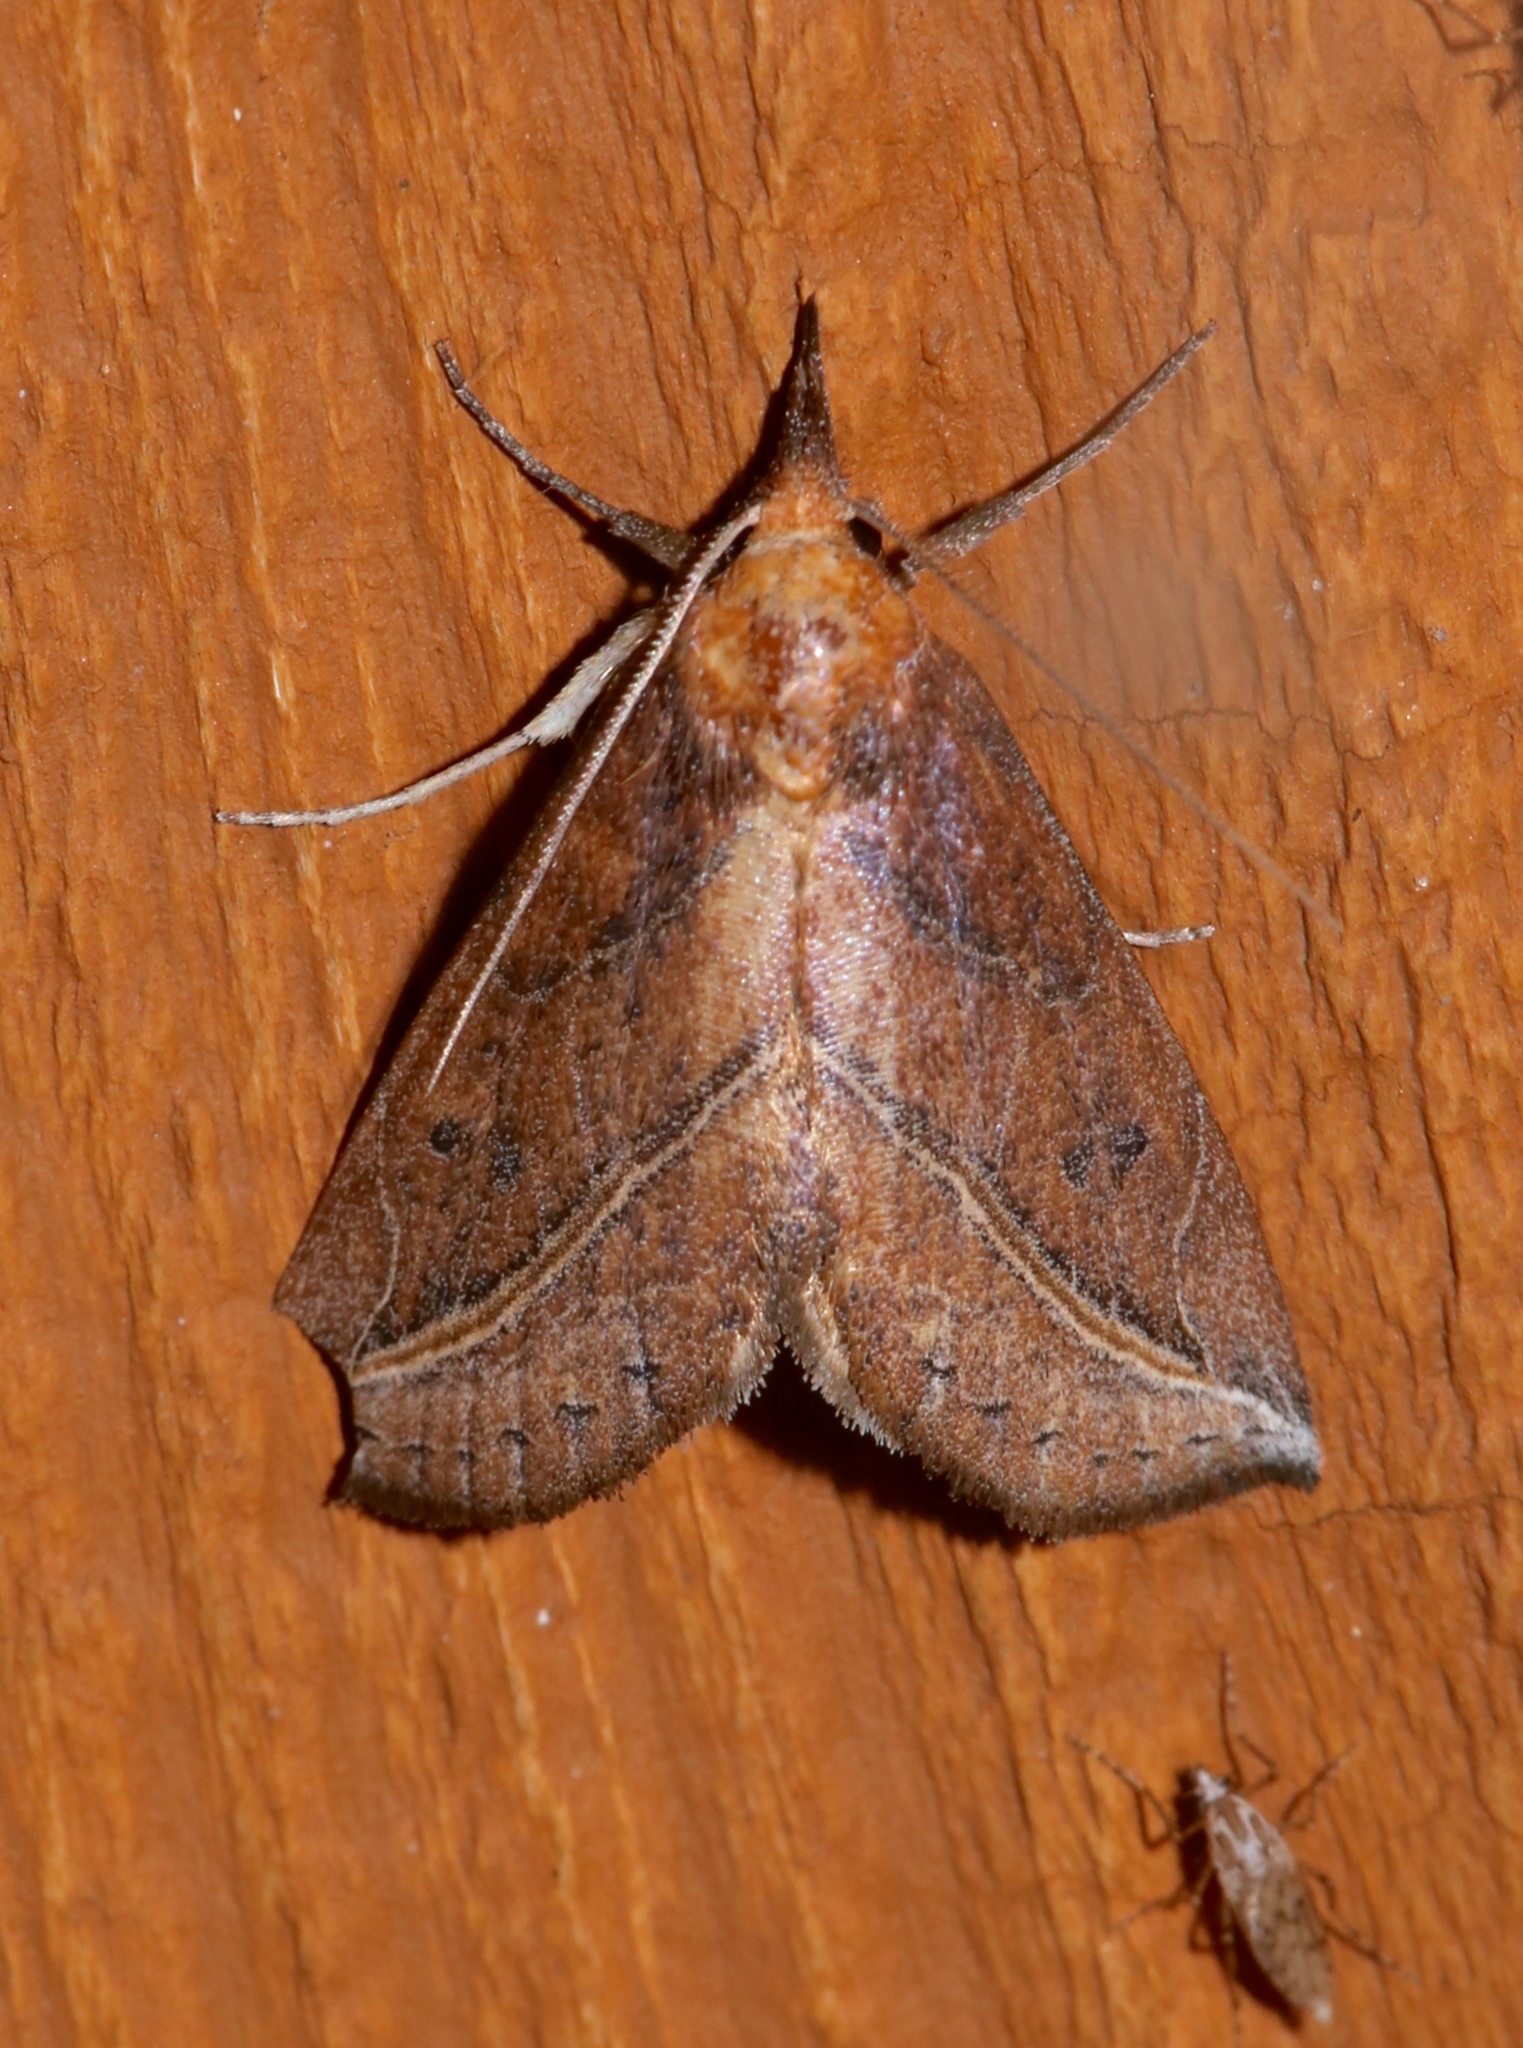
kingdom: Animalia
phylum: Arthropoda
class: Insecta
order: Lepidoptera
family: Erebidae
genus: Phyprosopus
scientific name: Phyprosopus callitrichoides
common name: Curved-lined owlet
